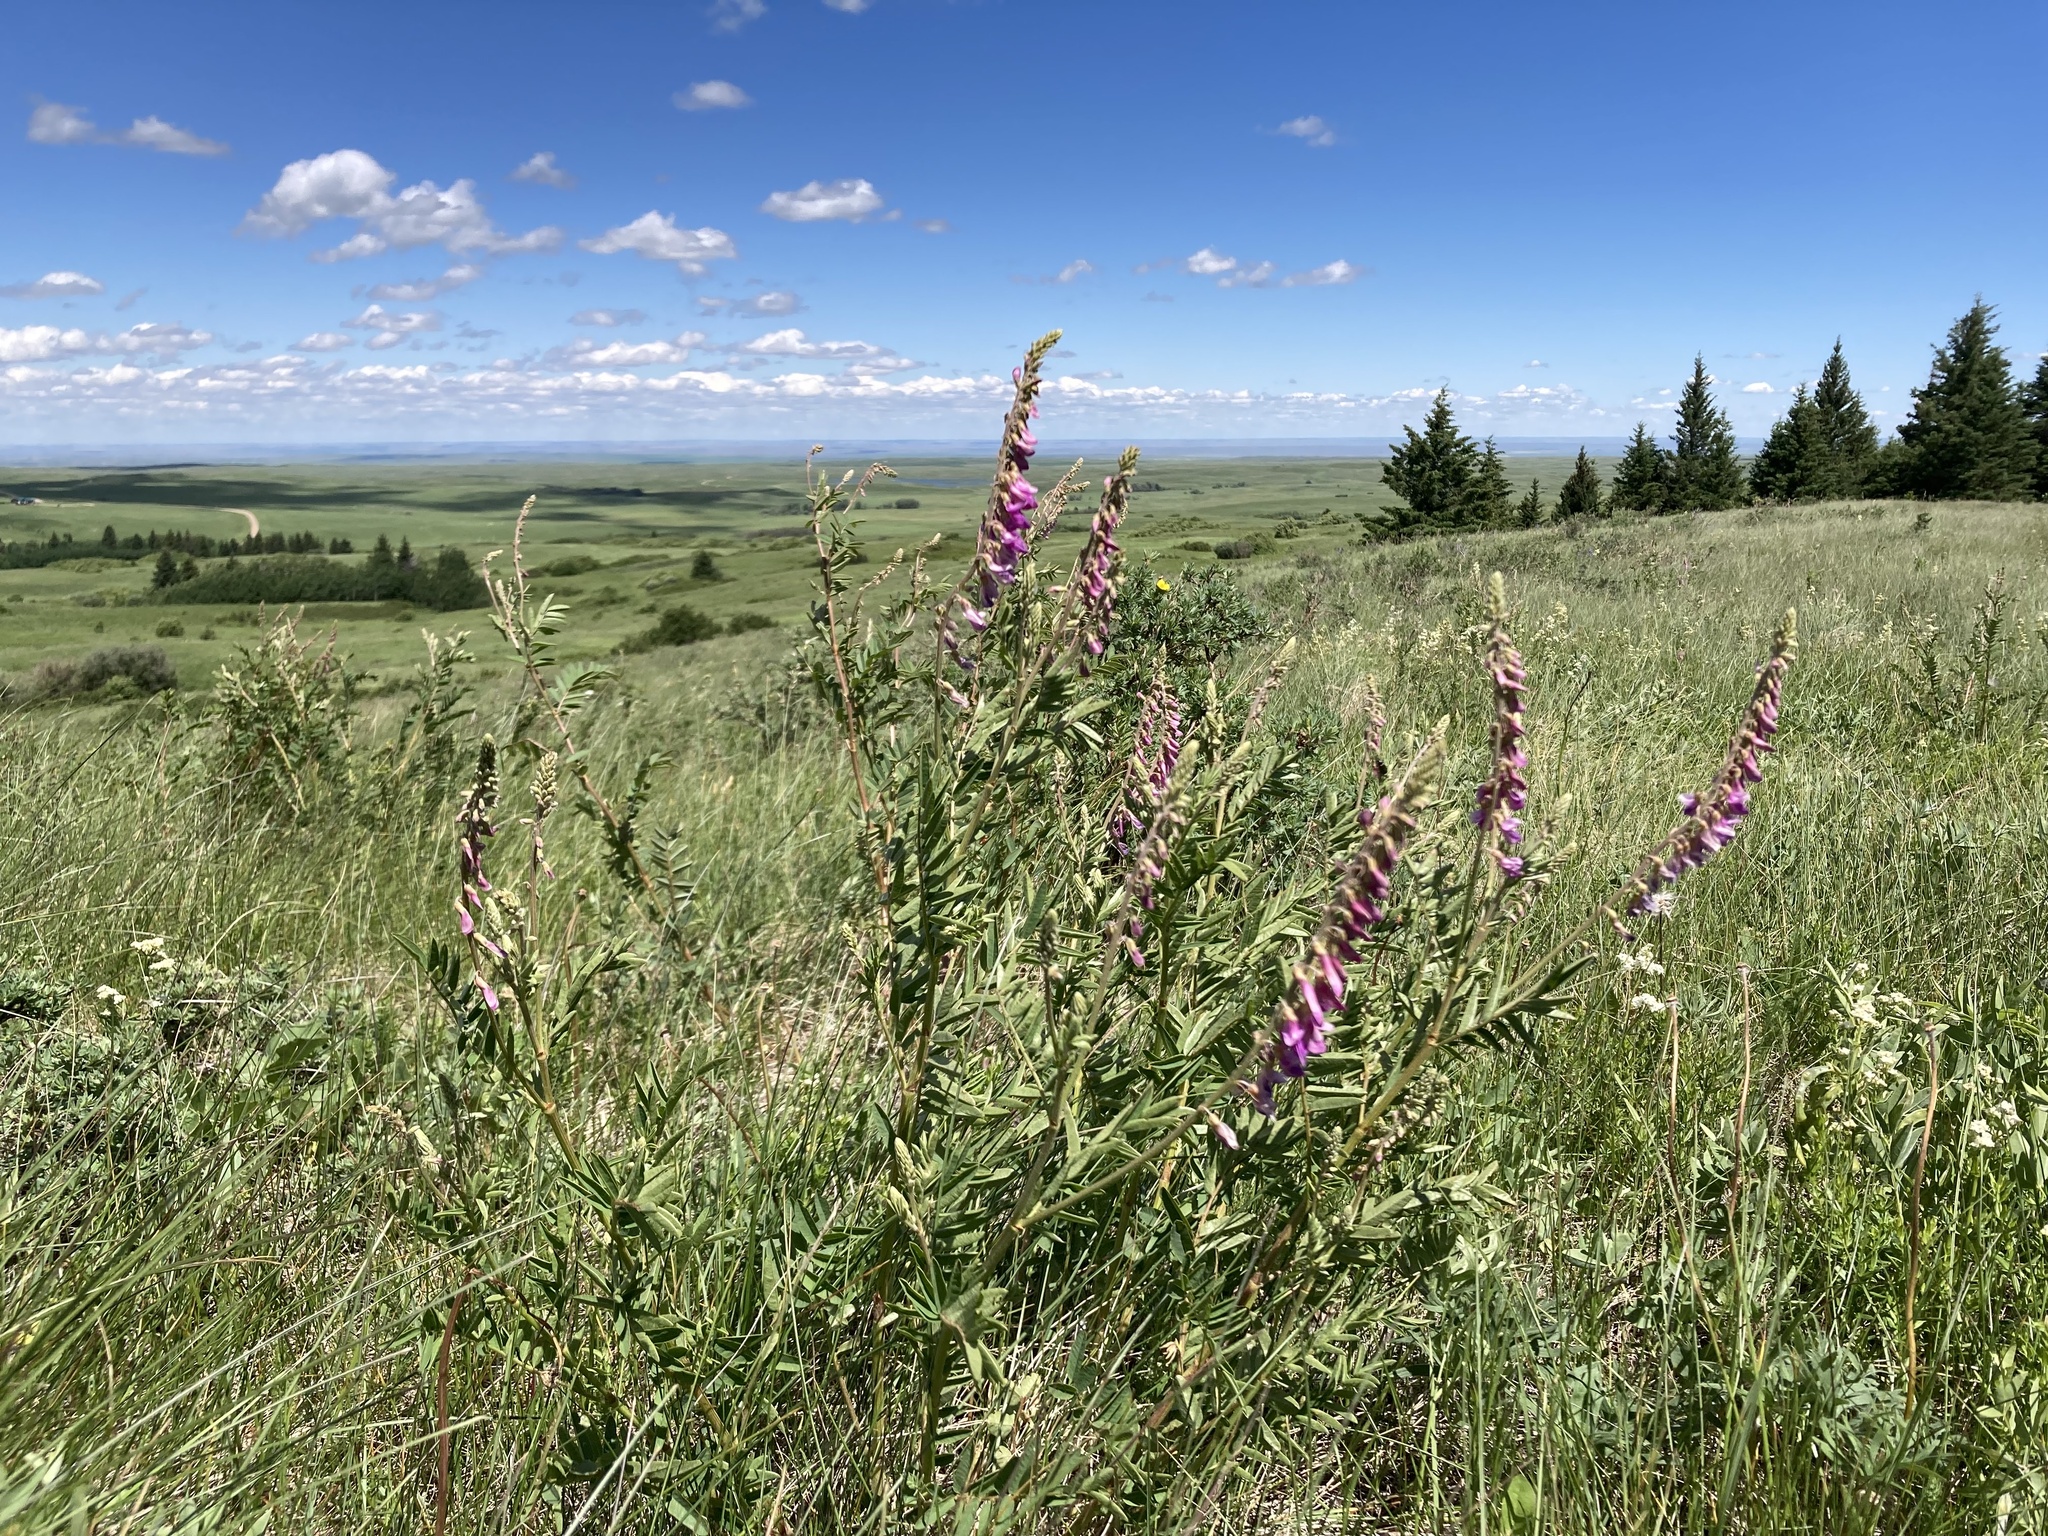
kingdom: Plantae
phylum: Tracheophyta
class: Magnoliopsida
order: Fabales
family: Fabaceae
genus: Hedysarum
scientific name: Hedysarum alpinum
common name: Alpine sweet-vetch
